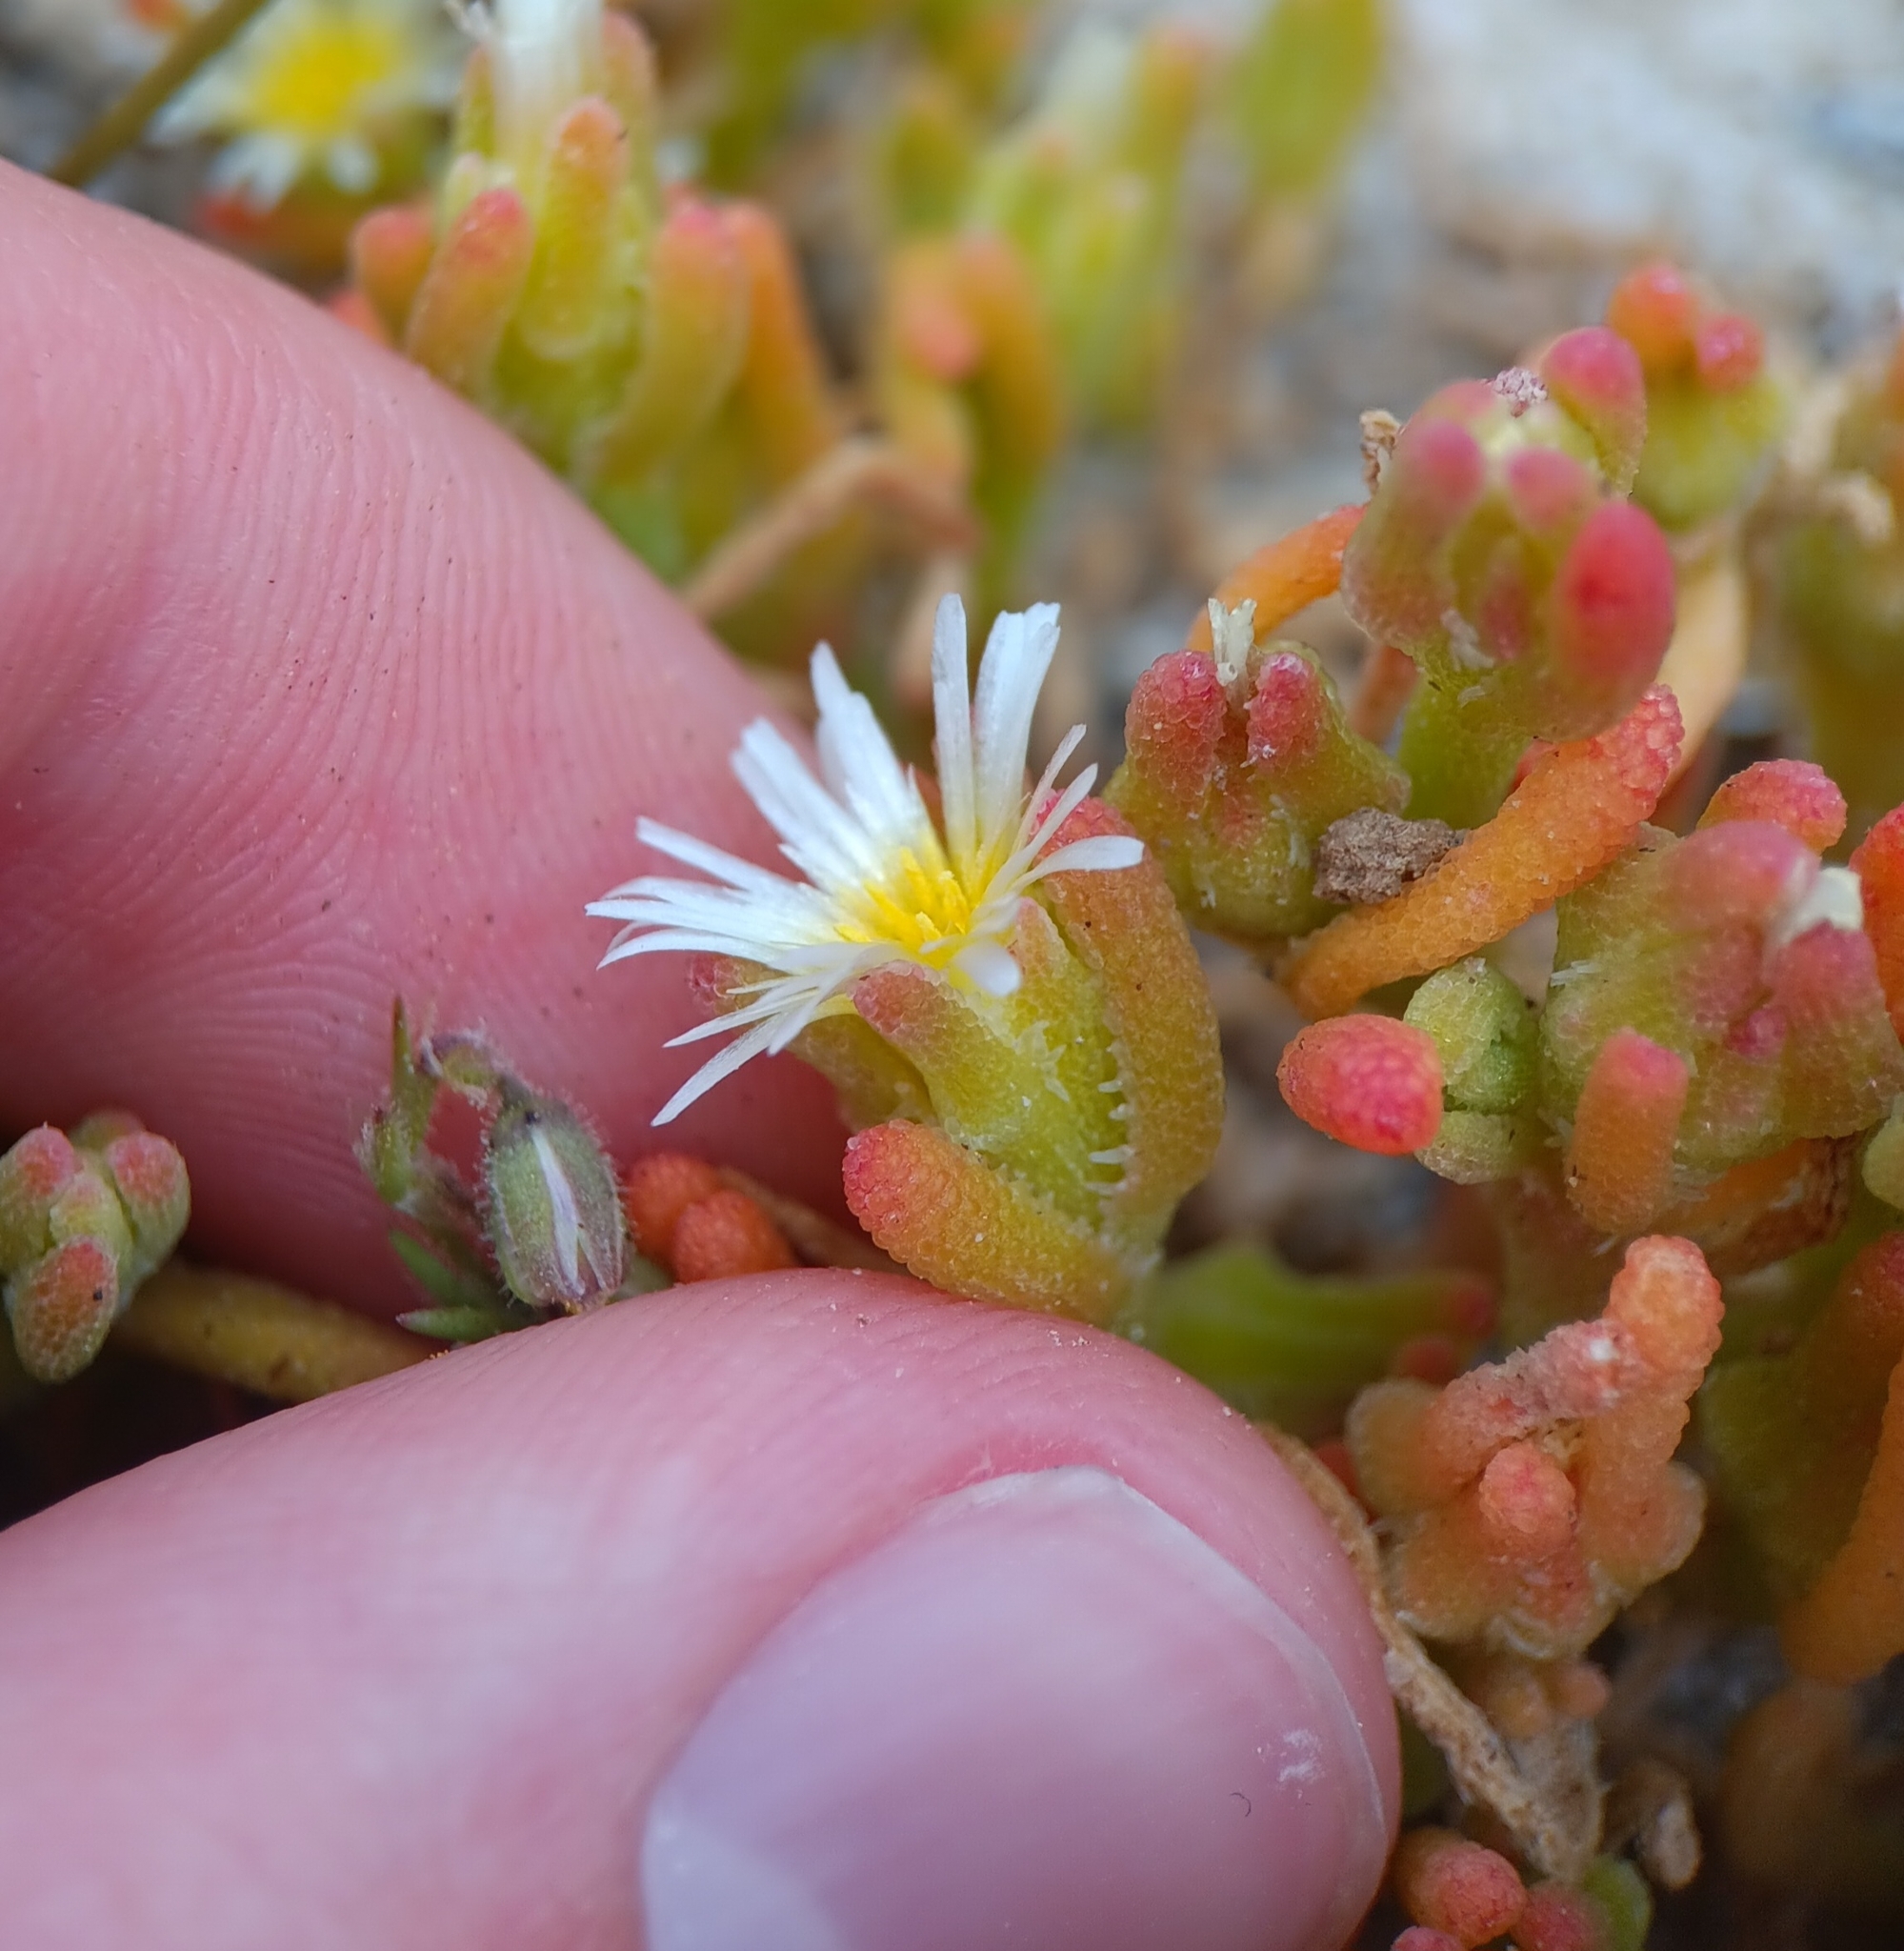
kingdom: Plantae
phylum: Tracheophyta
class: Magnoliopsida
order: Caryophyllales
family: Aizoaceae
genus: Mesembryanthemum
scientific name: Mesembryanthemum nodiflorum
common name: Slenderleaf iceplant
